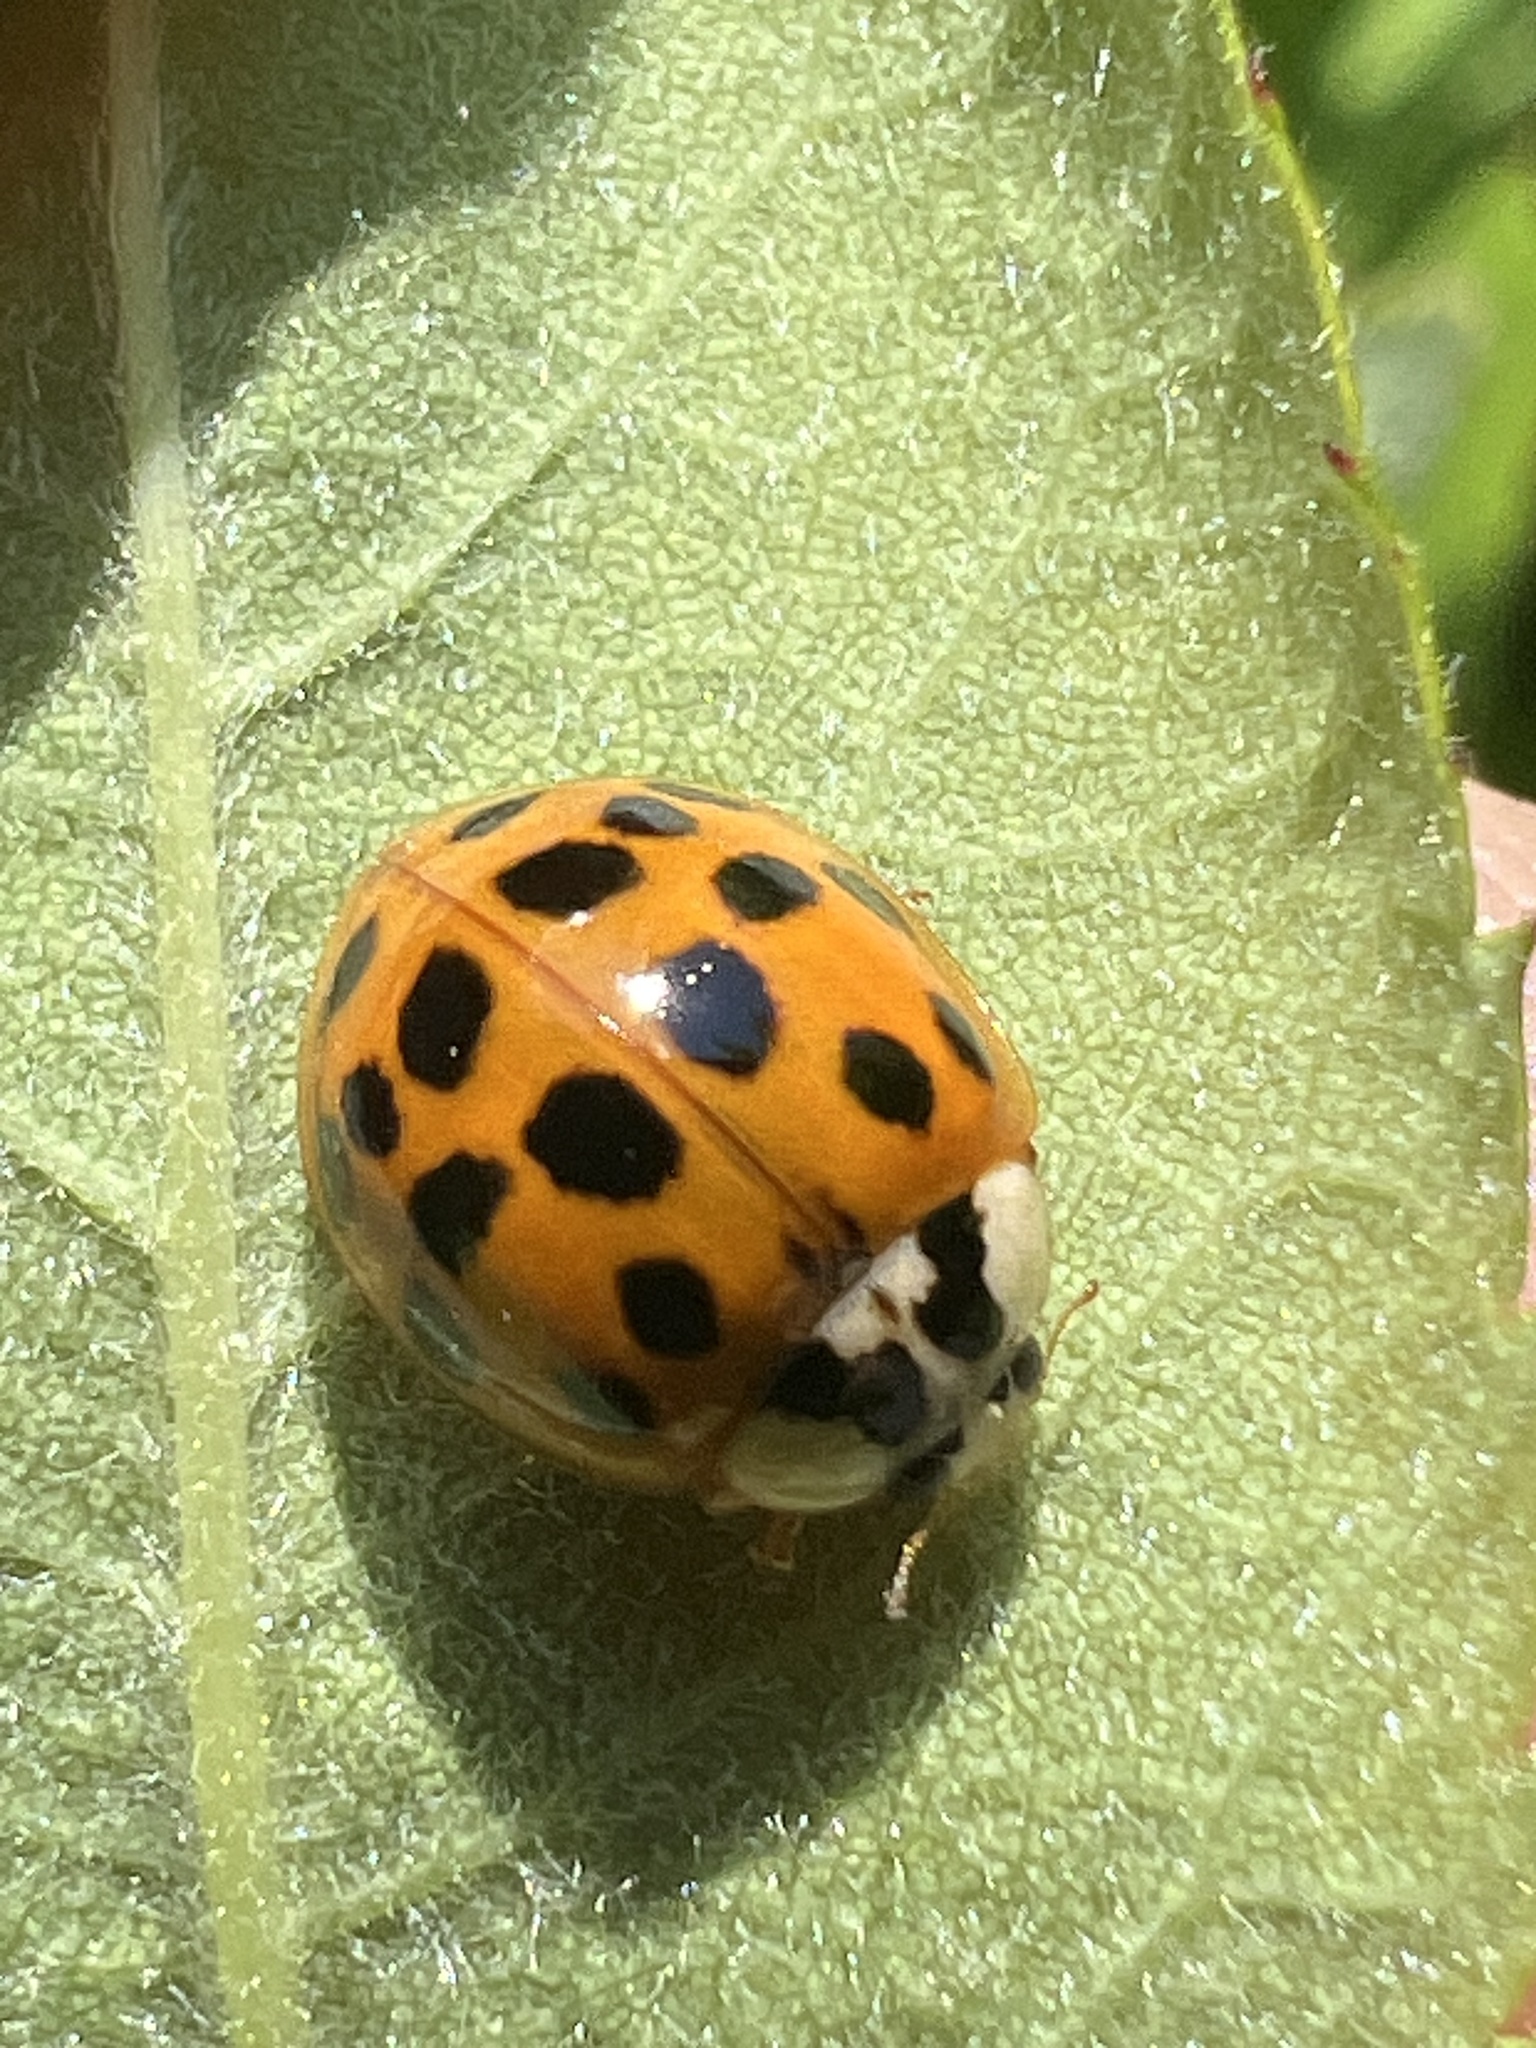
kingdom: Animalia
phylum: Arthropoda
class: Insecta
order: Coleoptera
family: Coccinellidae
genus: Harmonia
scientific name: Harmonia axyridis
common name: Harlequin ladybird
